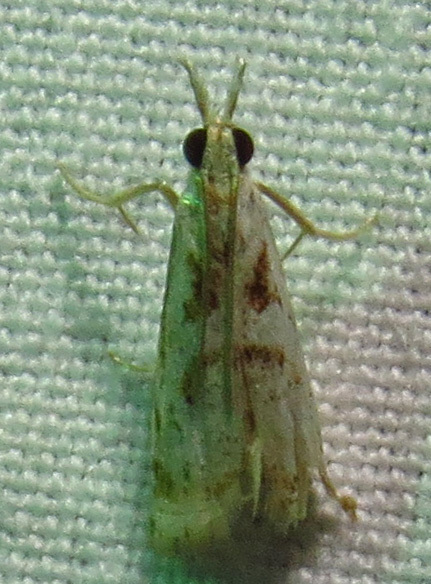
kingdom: Animalia
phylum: Arthropoda
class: Insecta
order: Lepidoptera
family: Crambidae
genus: Microcrambus
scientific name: Microcrambus elegans
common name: Elegant grass-veneer
